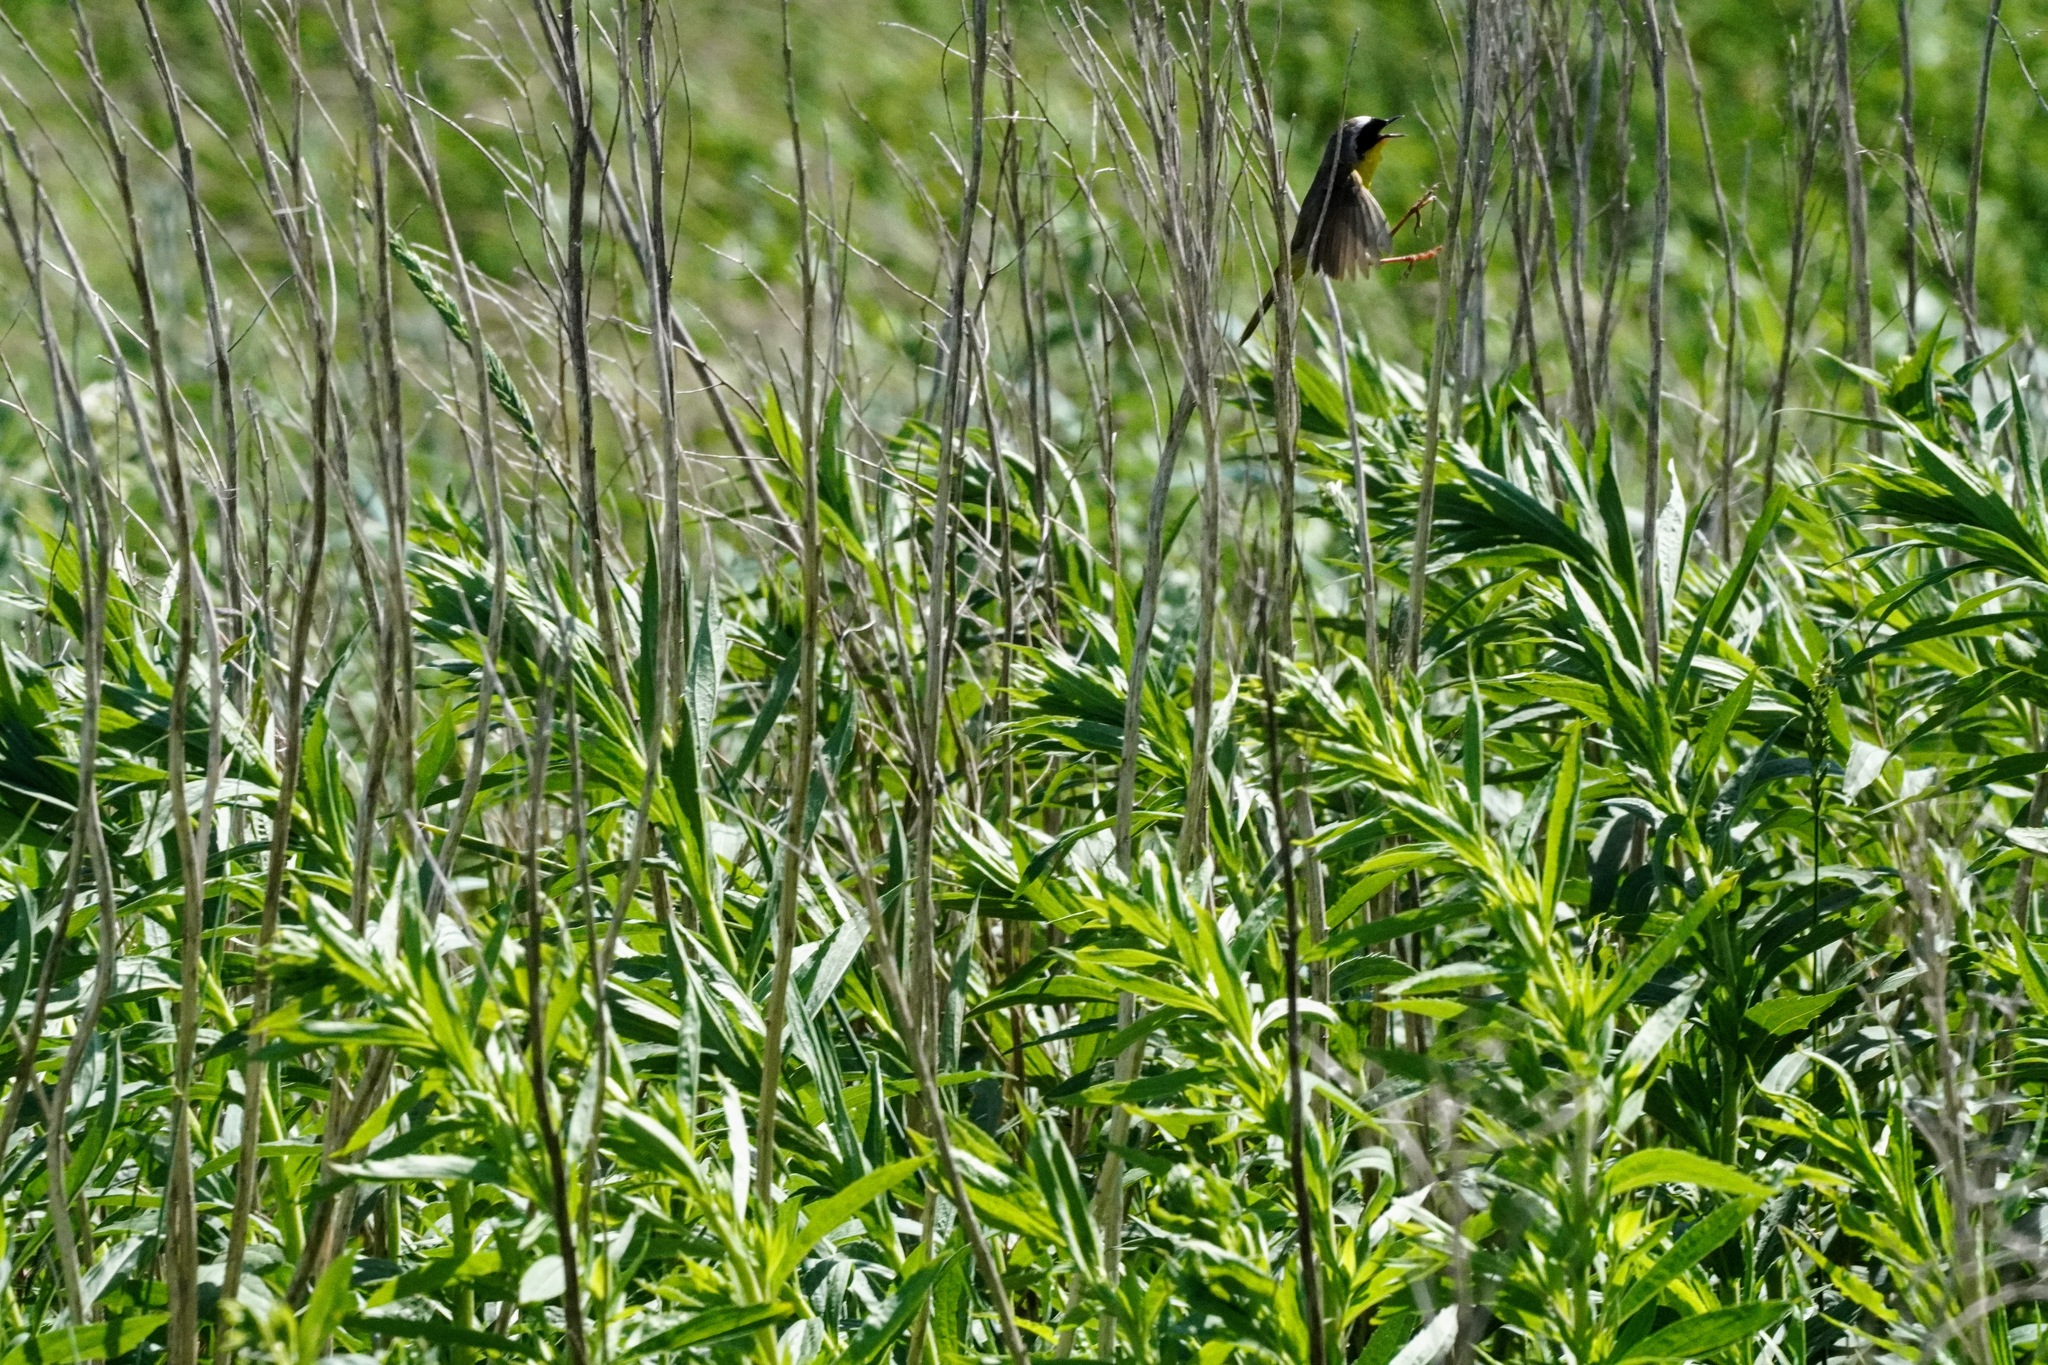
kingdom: Animalia
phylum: Chordata
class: Aves
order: Passeriformes
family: Parulidae
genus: Geothlypis
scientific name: Geothlypis trichas
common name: Common yellowthroat
